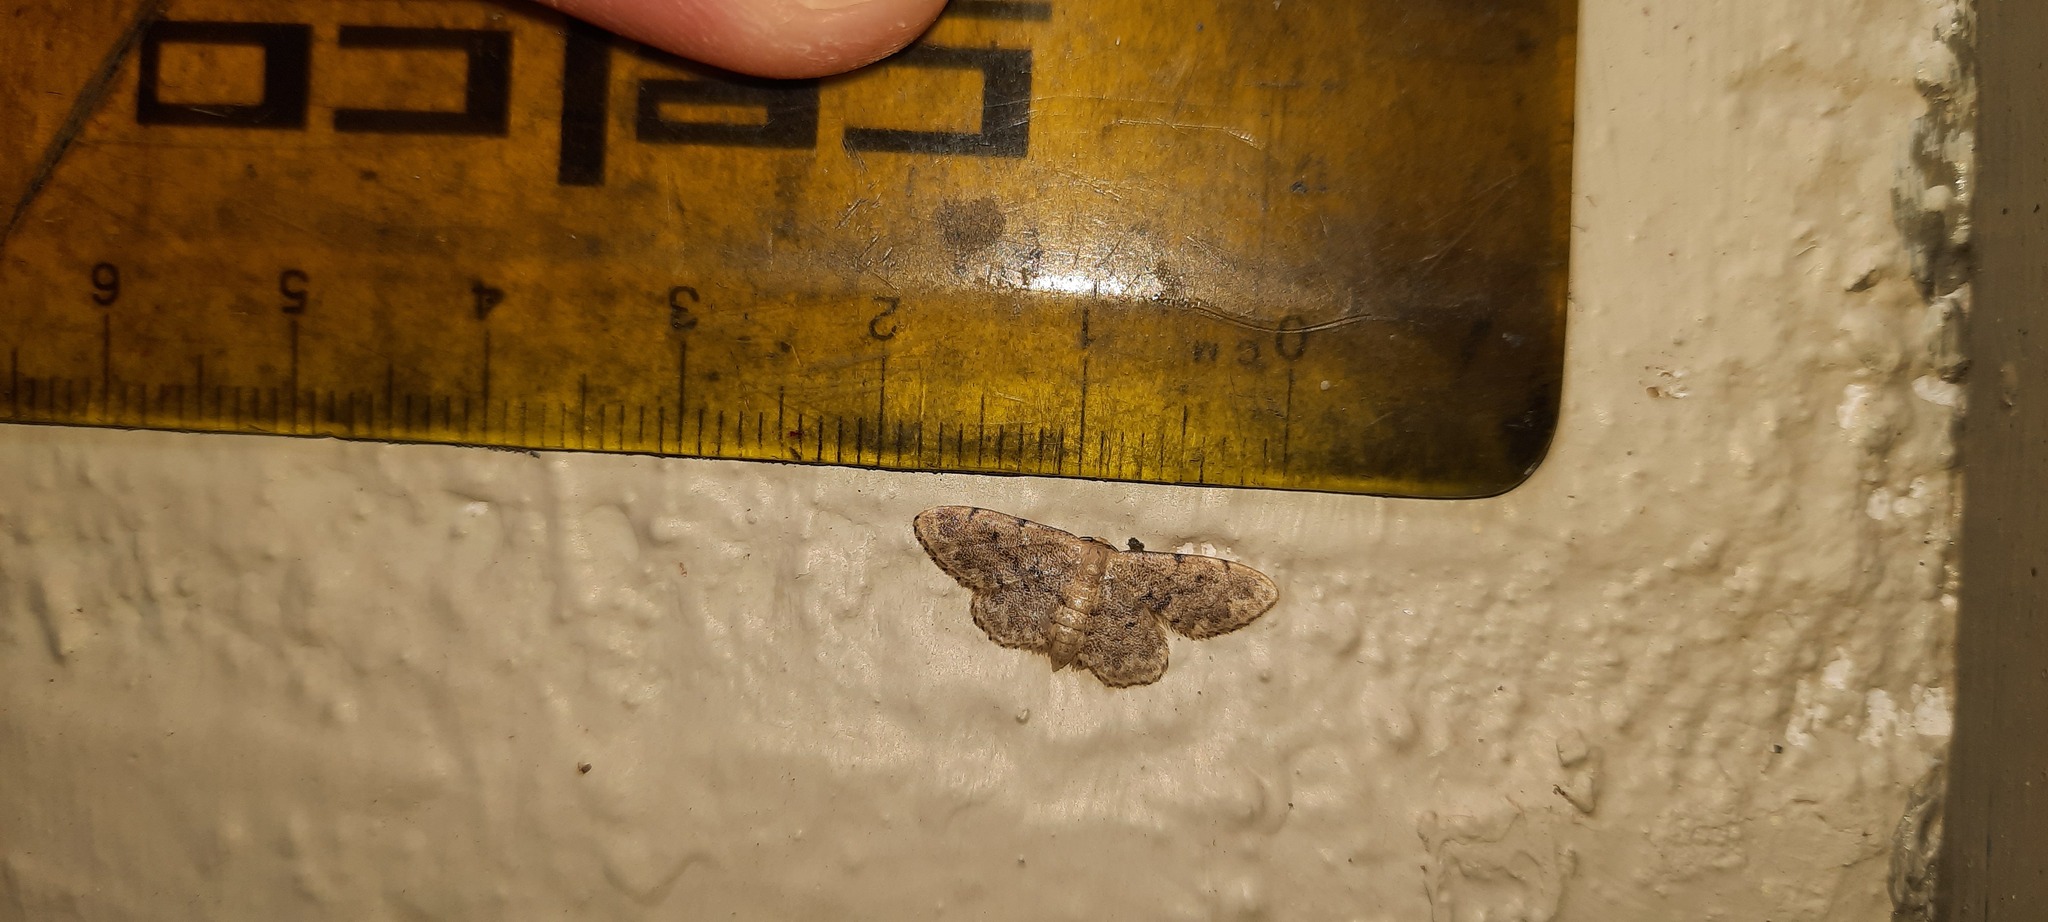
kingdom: Animalia
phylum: Arthropoda
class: Insecta
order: Lepidoptera
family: Geometridae
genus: Idaea
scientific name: Idaea inquinata
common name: Rusty wave
